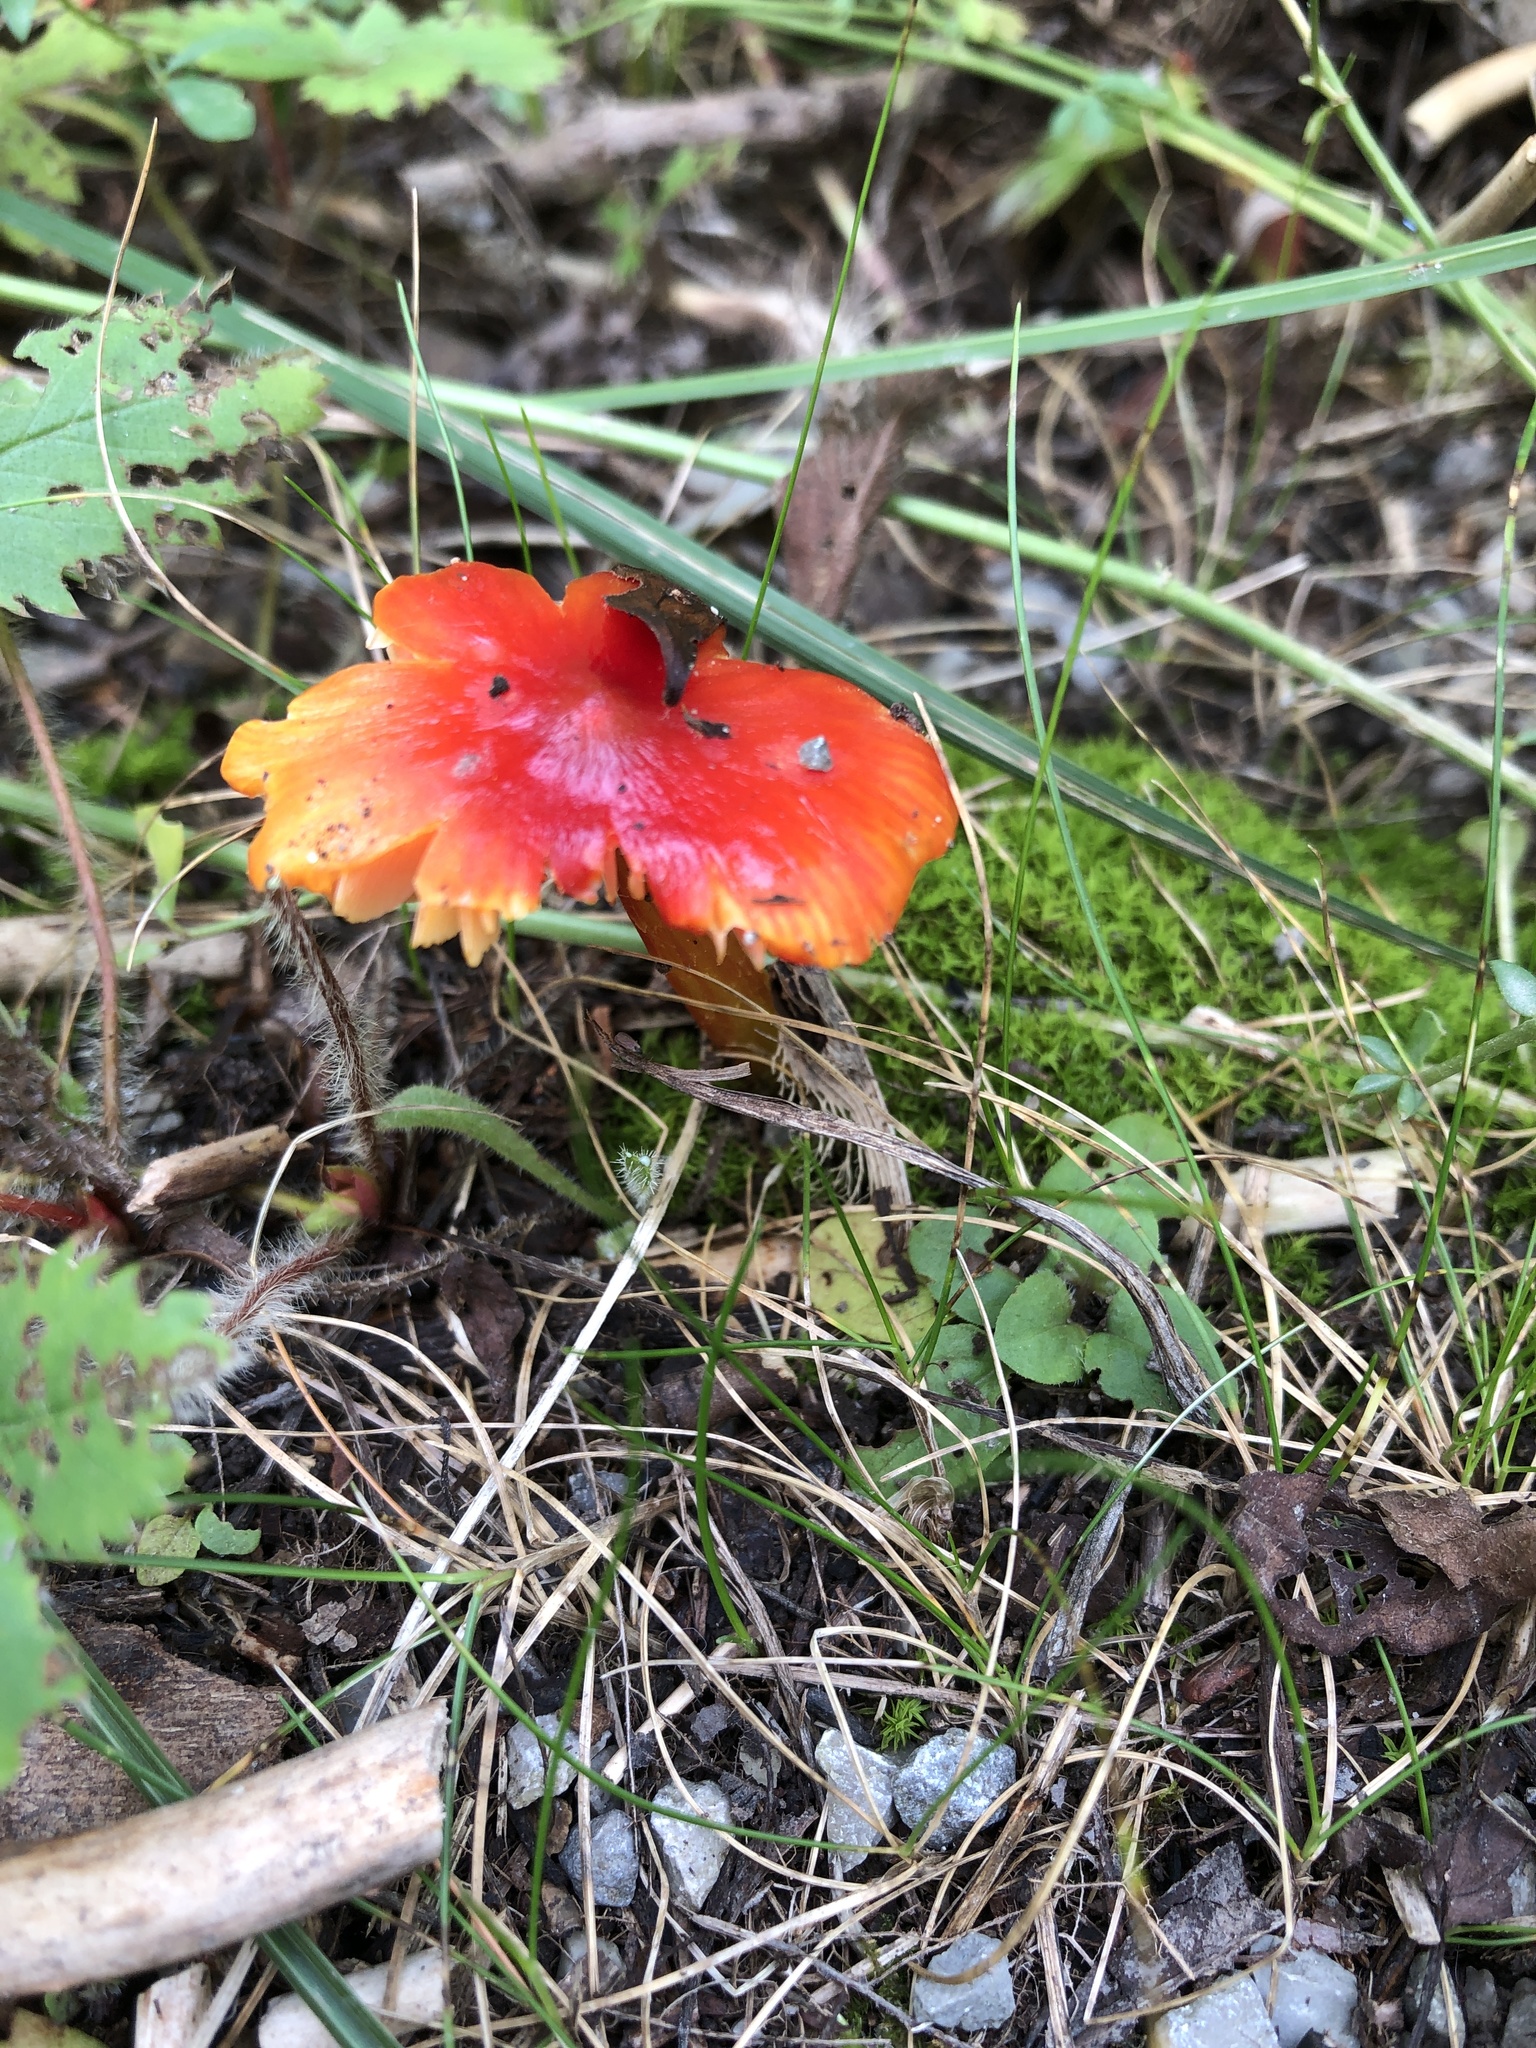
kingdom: Fungi
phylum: Basidiomycota
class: Agaricomycetes
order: Agaricales
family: Hygrophoraceae
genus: Hygrocybe
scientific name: Hygrocybe cuspidata
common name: Candy apple waxy cap
